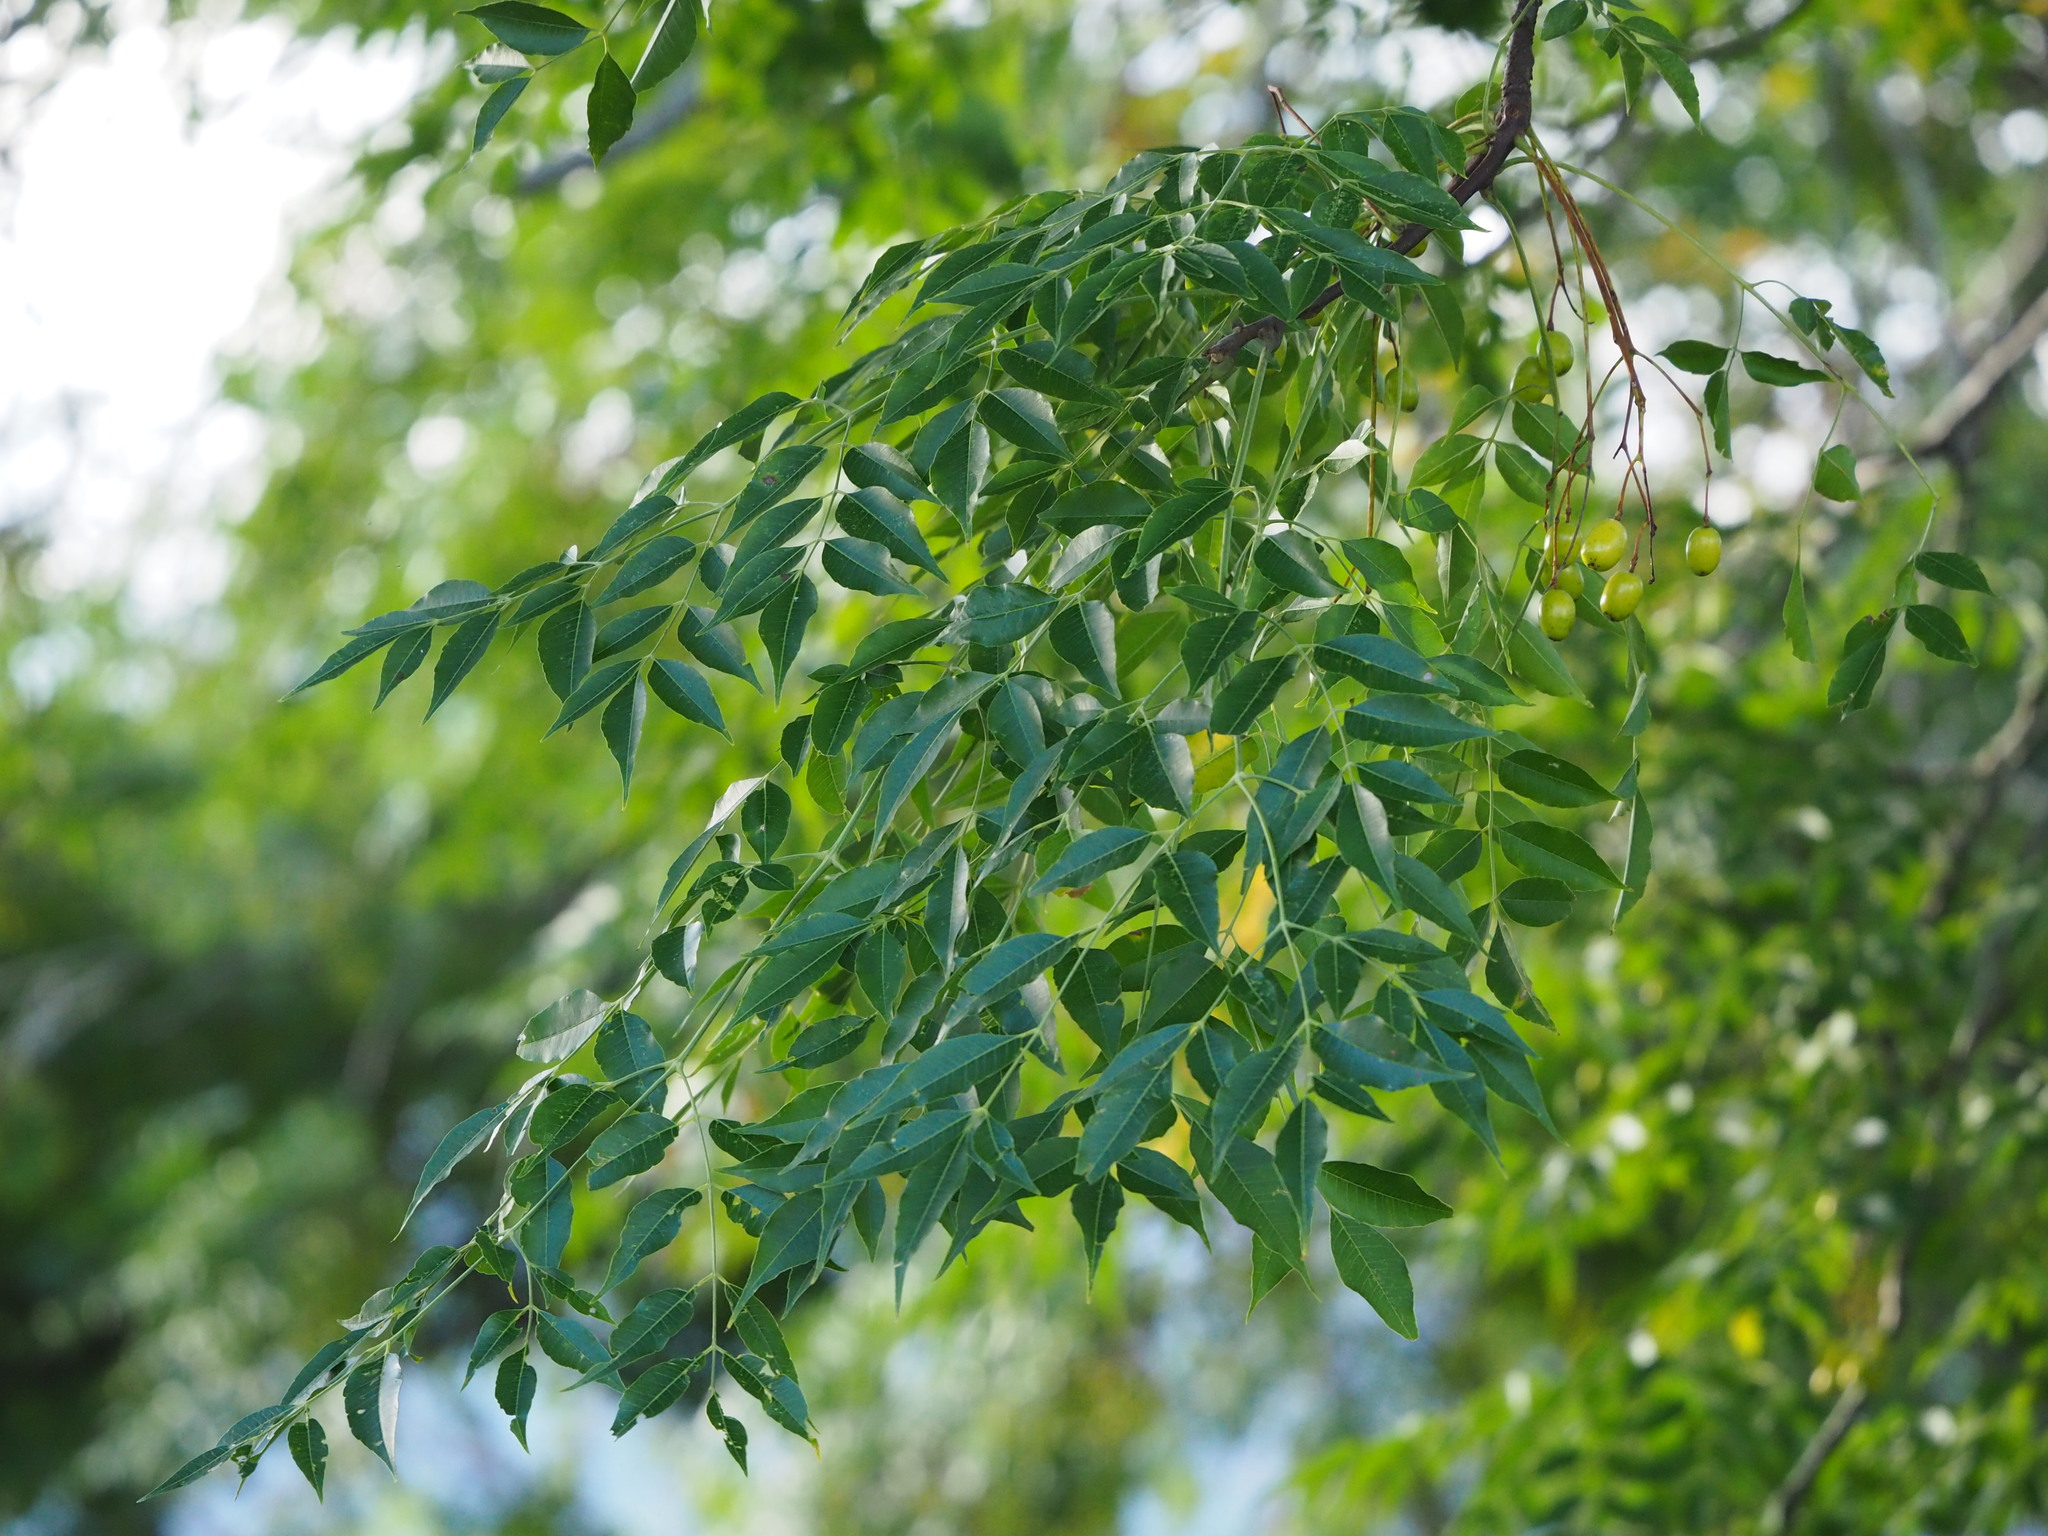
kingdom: Plantae
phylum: Tracheophyta
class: Magnoliopsida
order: Sapindales
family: Meliaceae
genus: Melia
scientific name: Melia azedarach
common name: Chinaberrytree
